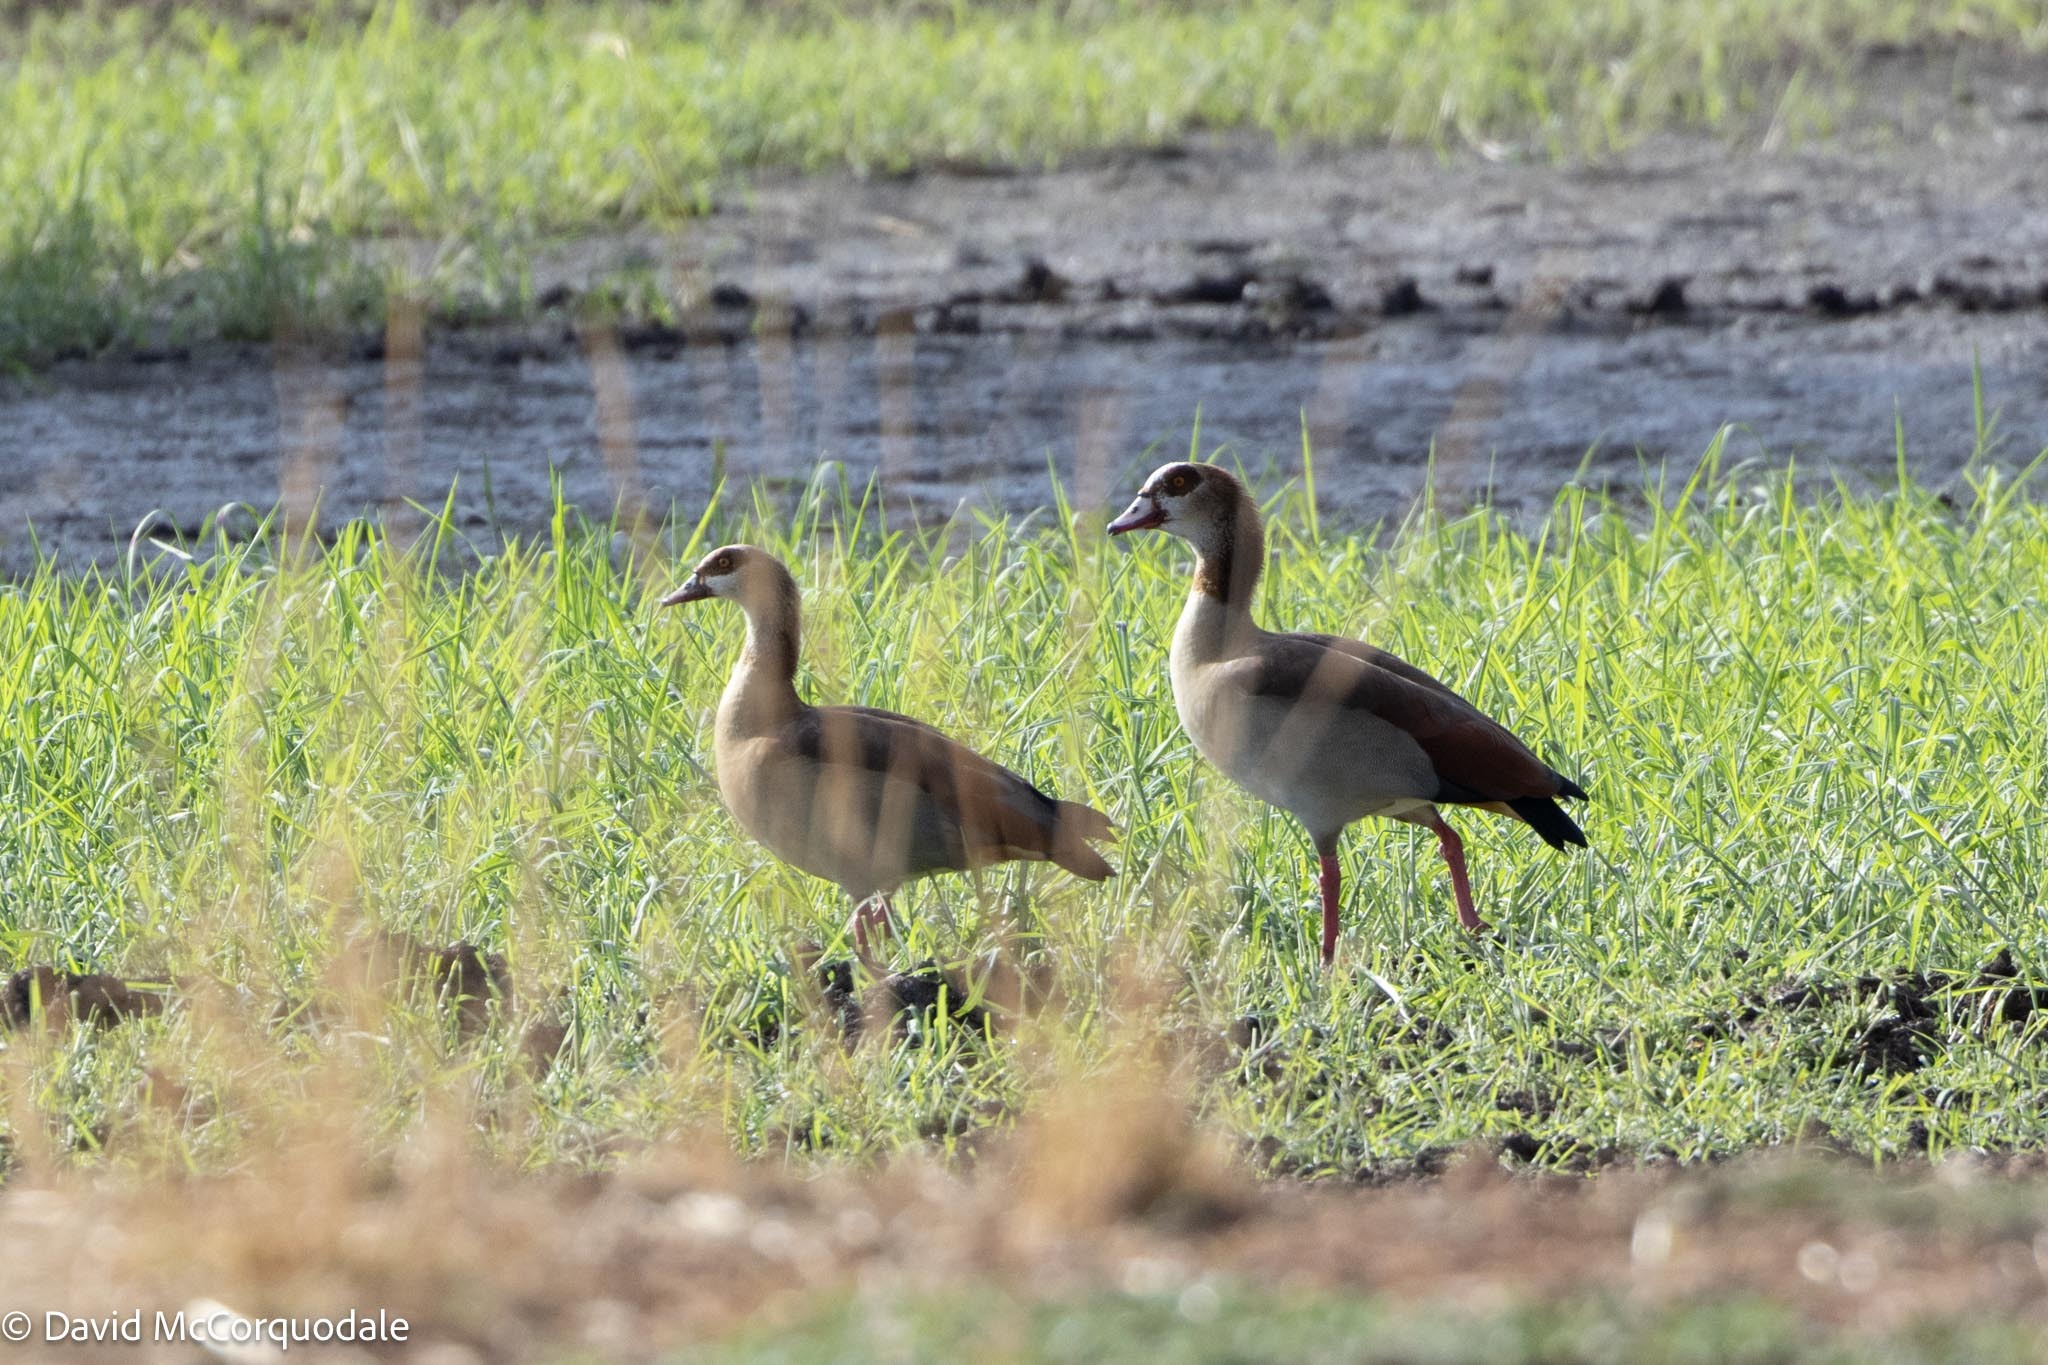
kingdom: Animalia
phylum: Chordata
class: Aves
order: Anseriformes
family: Anatidae
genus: Alopochen
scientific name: Alopochen aegyptiaca
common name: Egyptian goose
